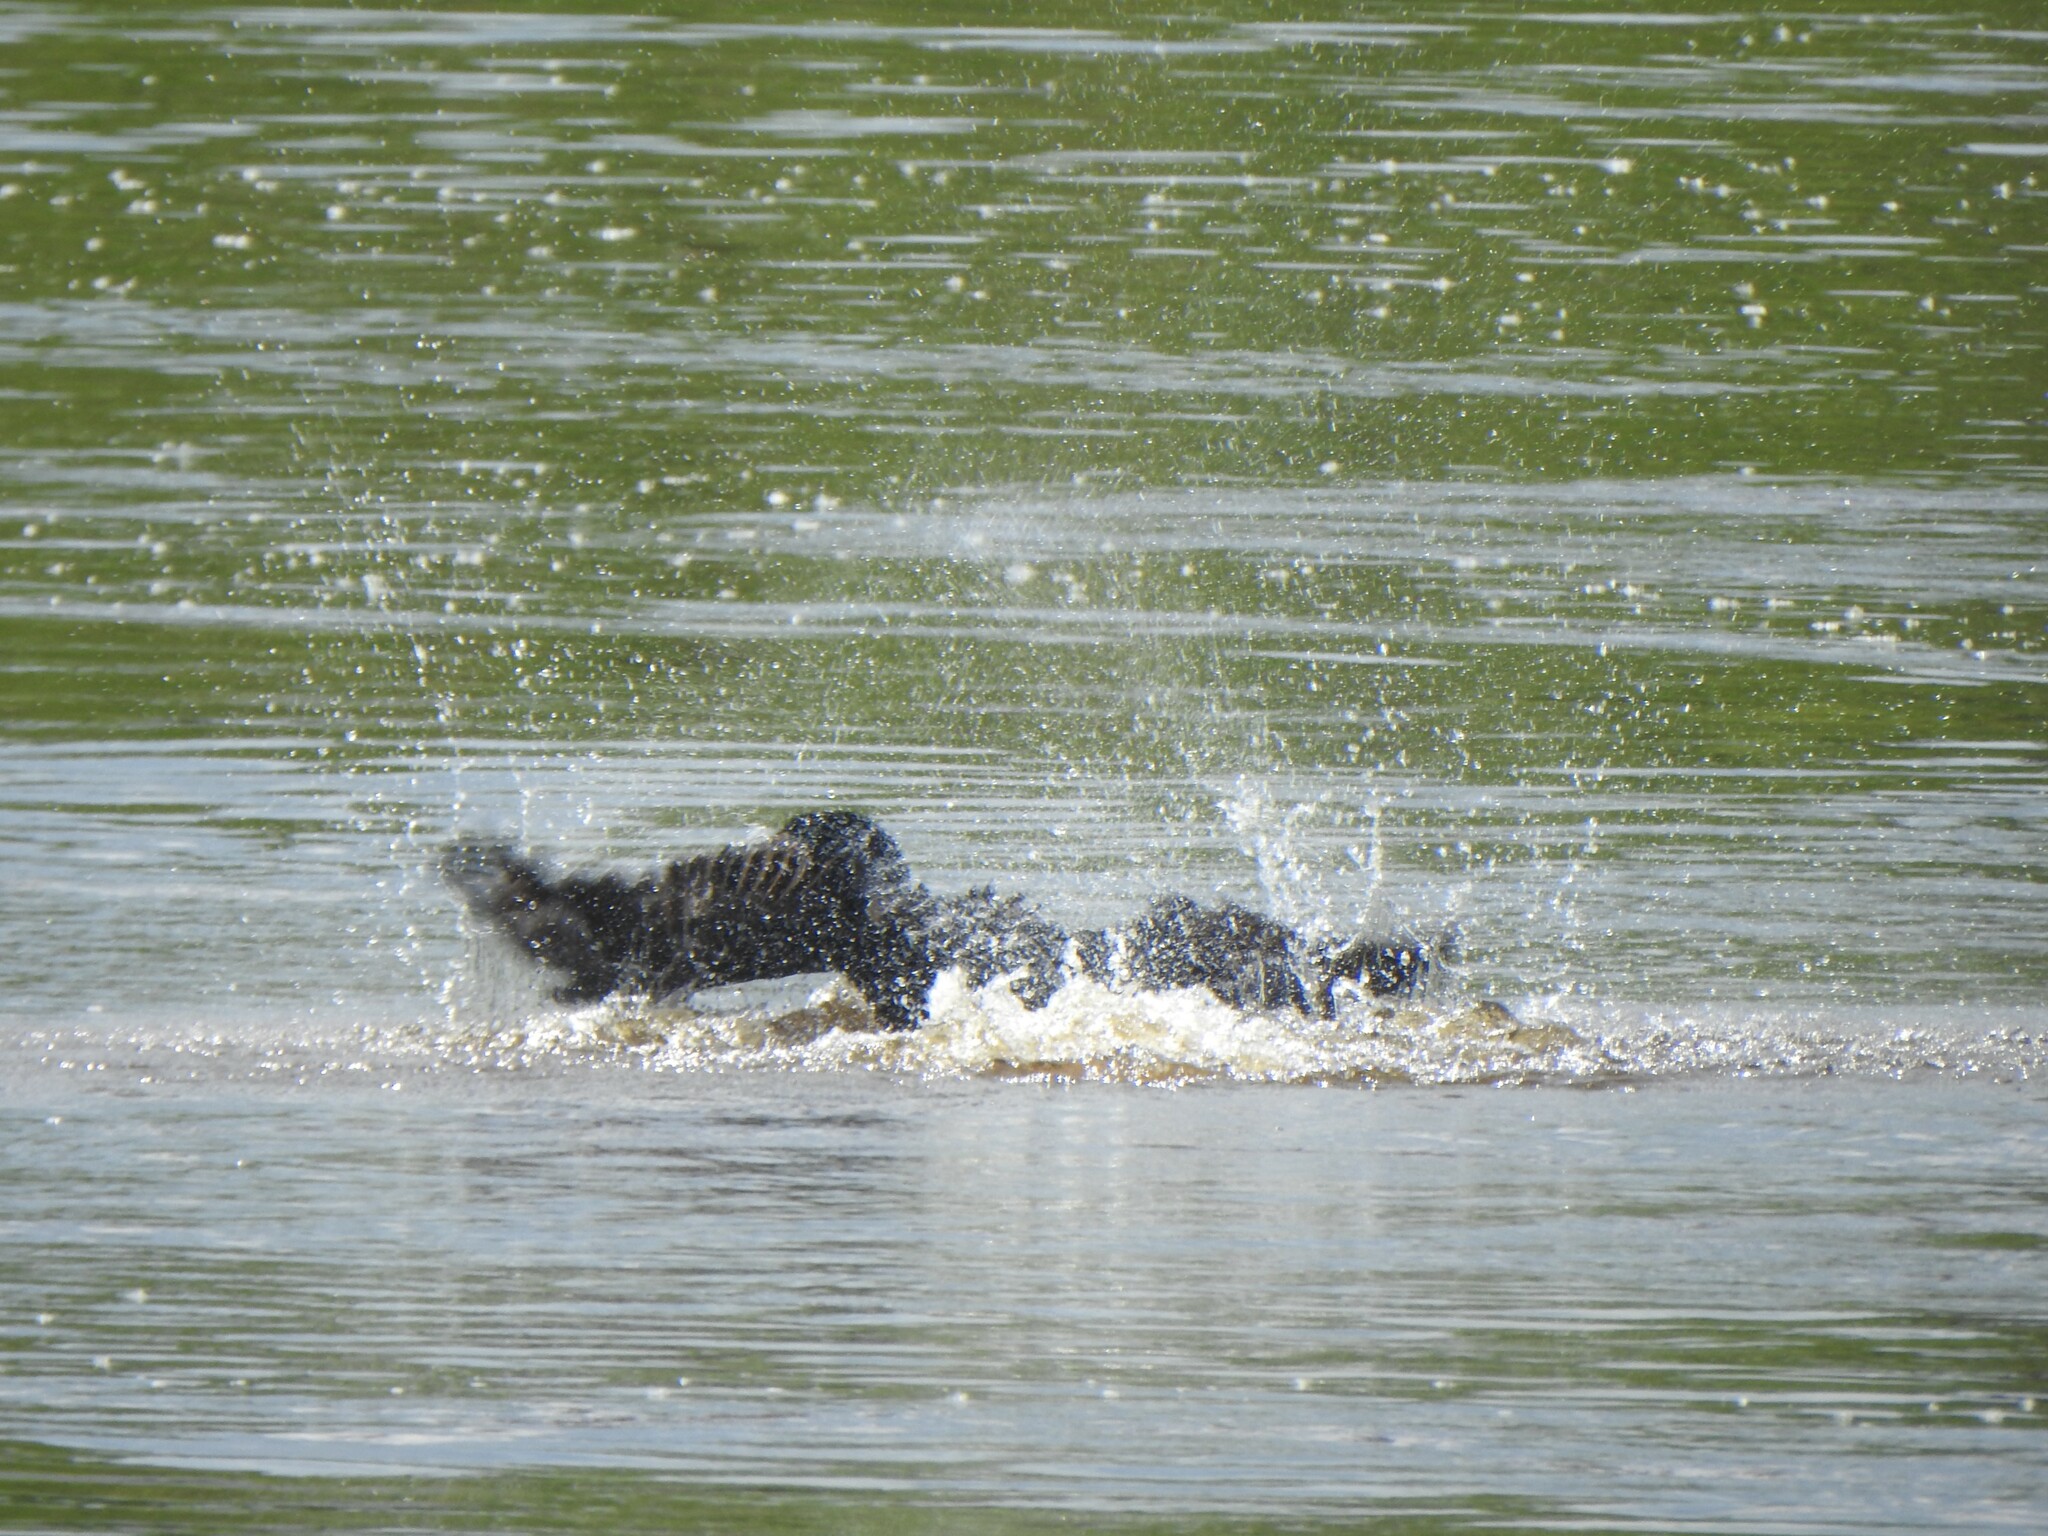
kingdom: Animalia
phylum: Chordata
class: Aves
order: Suliformes
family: Phalacrocoracidae
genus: Phalacrocorax
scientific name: Phalacrocorax auritus
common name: Double-crested cormorant
